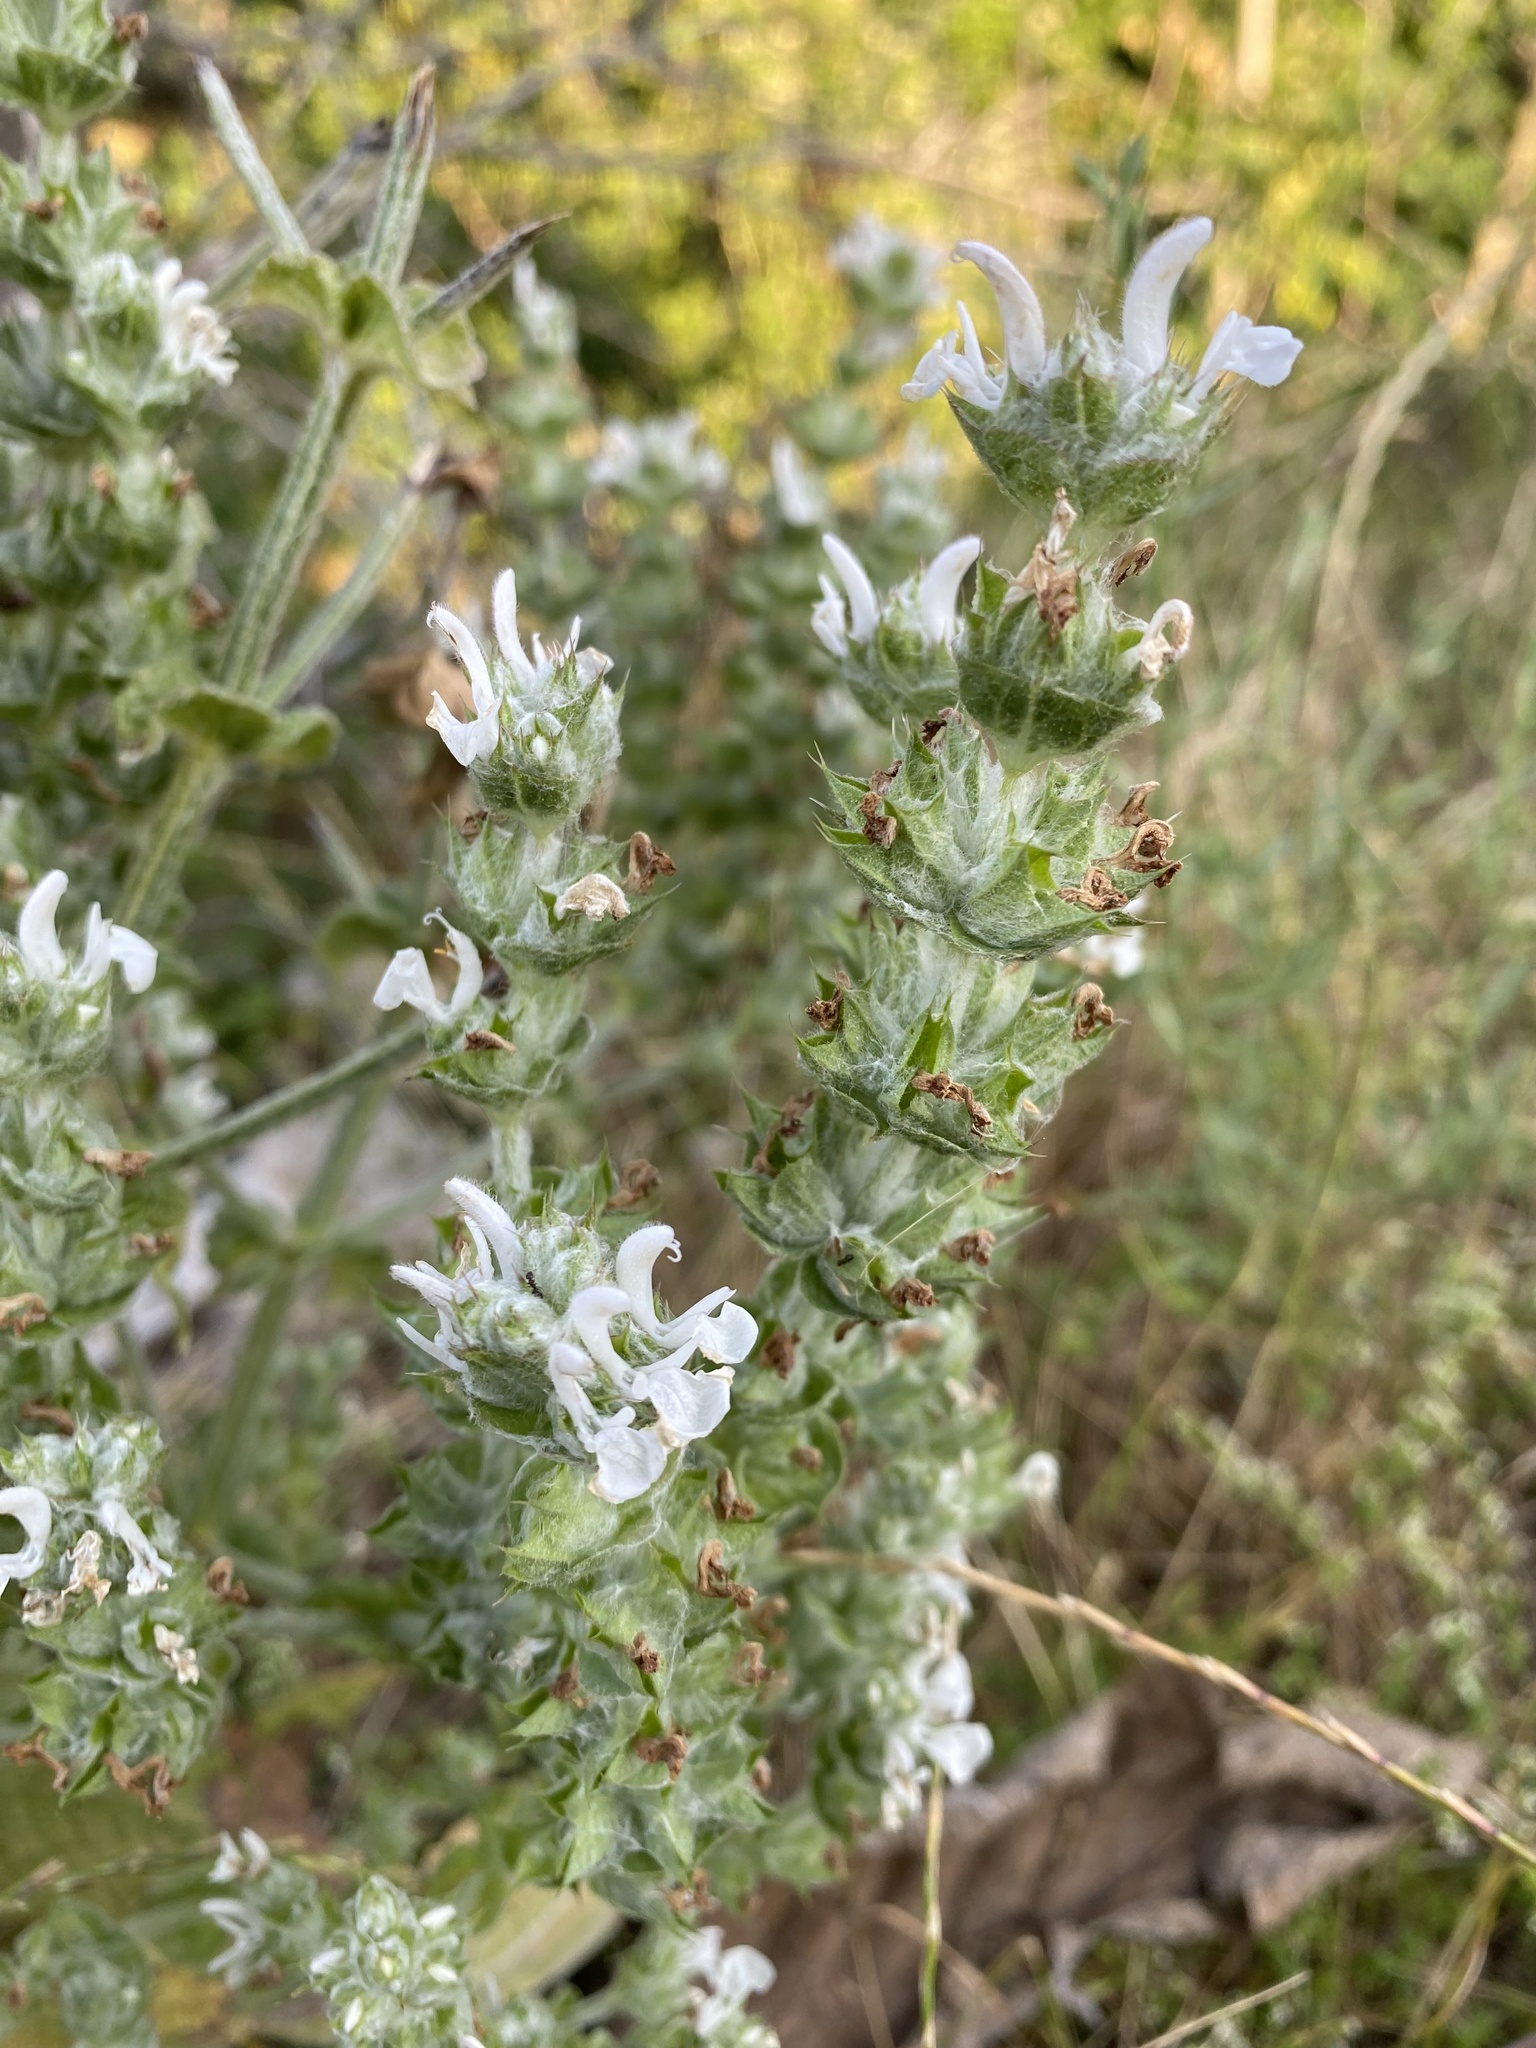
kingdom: Plantae
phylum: Tracheophyta
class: Magnoliopsida
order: Lamiales
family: Lamiaceae
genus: Salvia
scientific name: Salvia aethiopis
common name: Mediterranean sage
